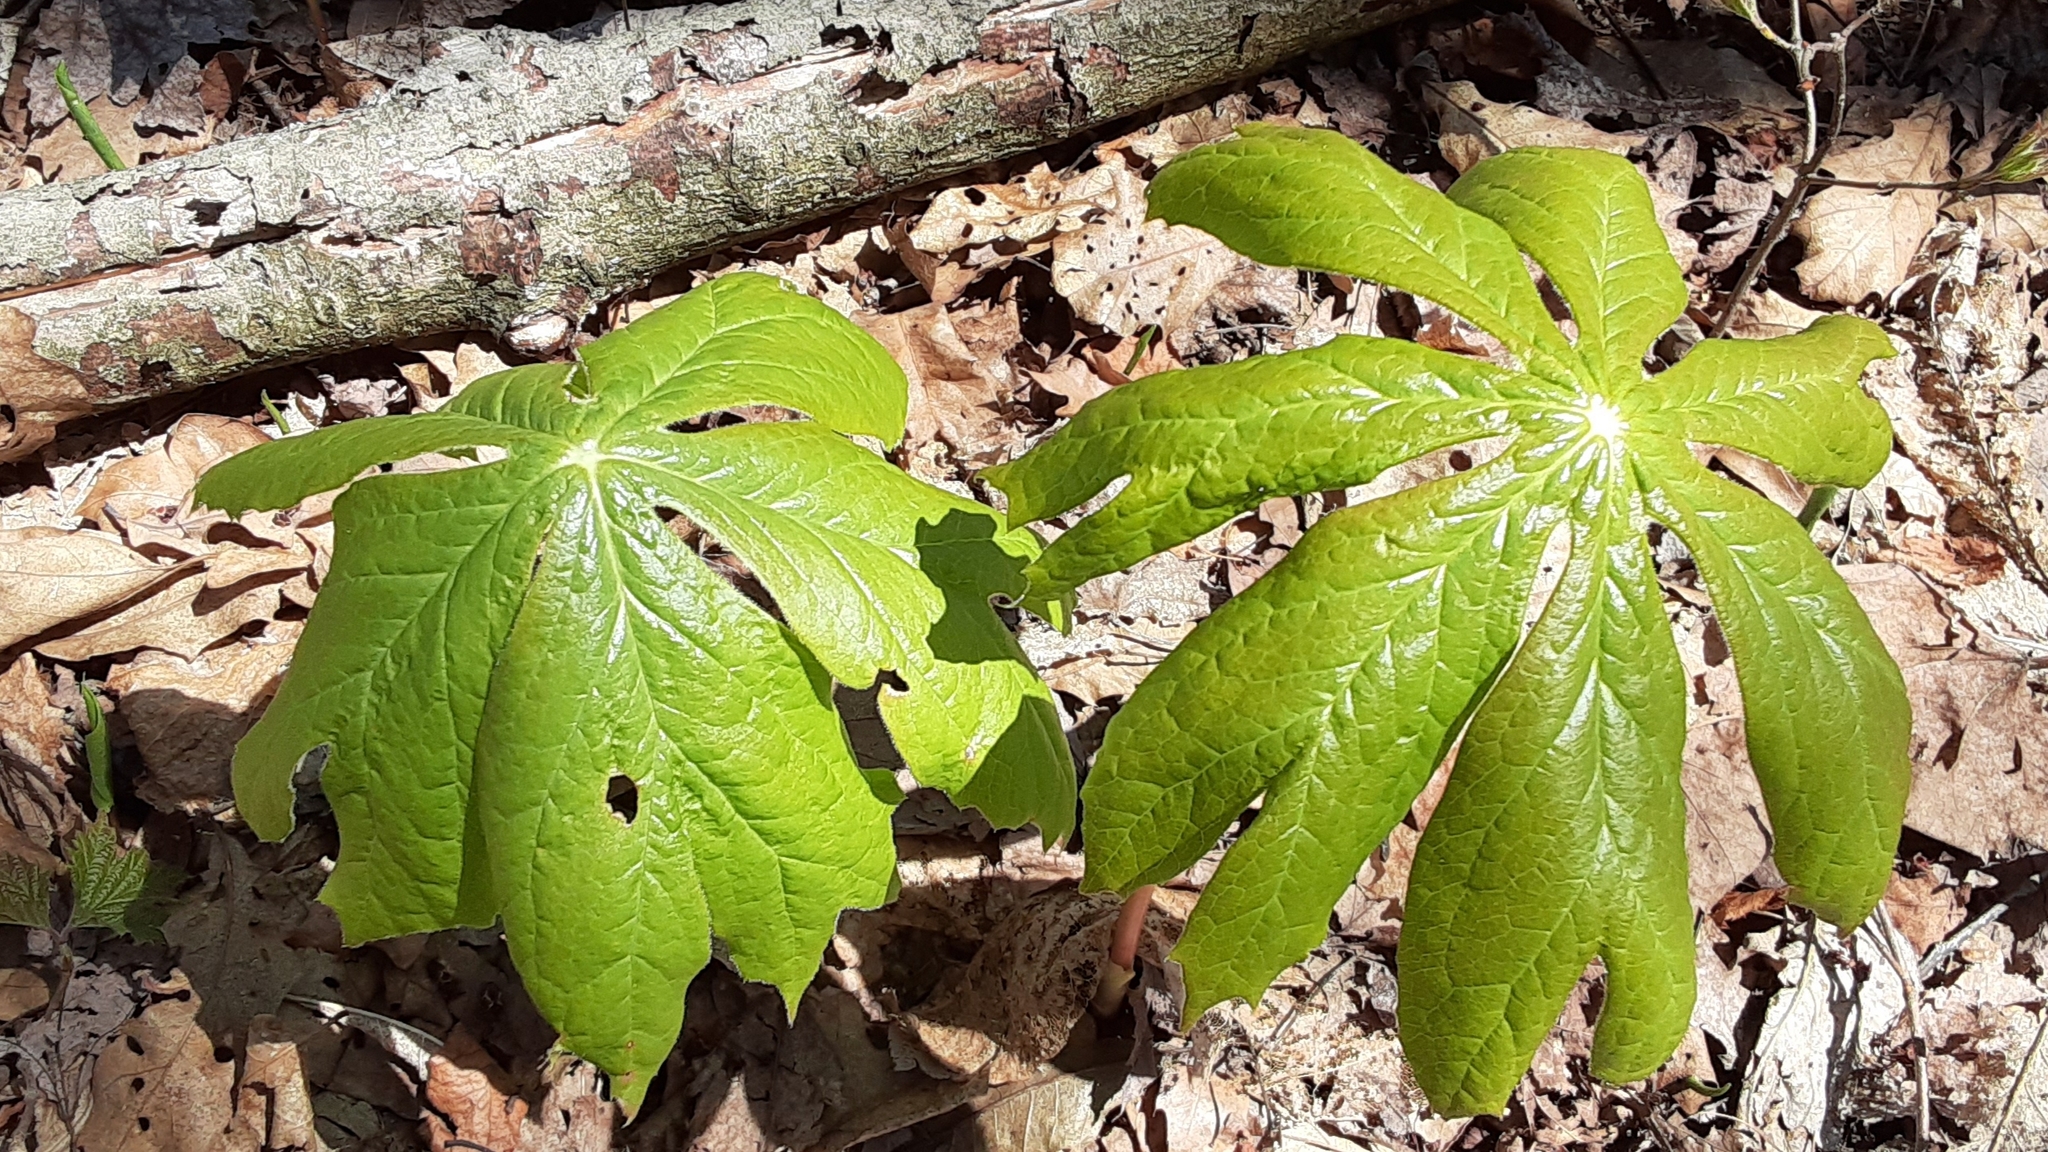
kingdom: Plantae
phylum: Tracheophyta
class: Magnoliopsida
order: Ranunculales
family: Berberidaceae
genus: Podophyllum
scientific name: Podophyllum peltatum
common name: Wild mandrake
